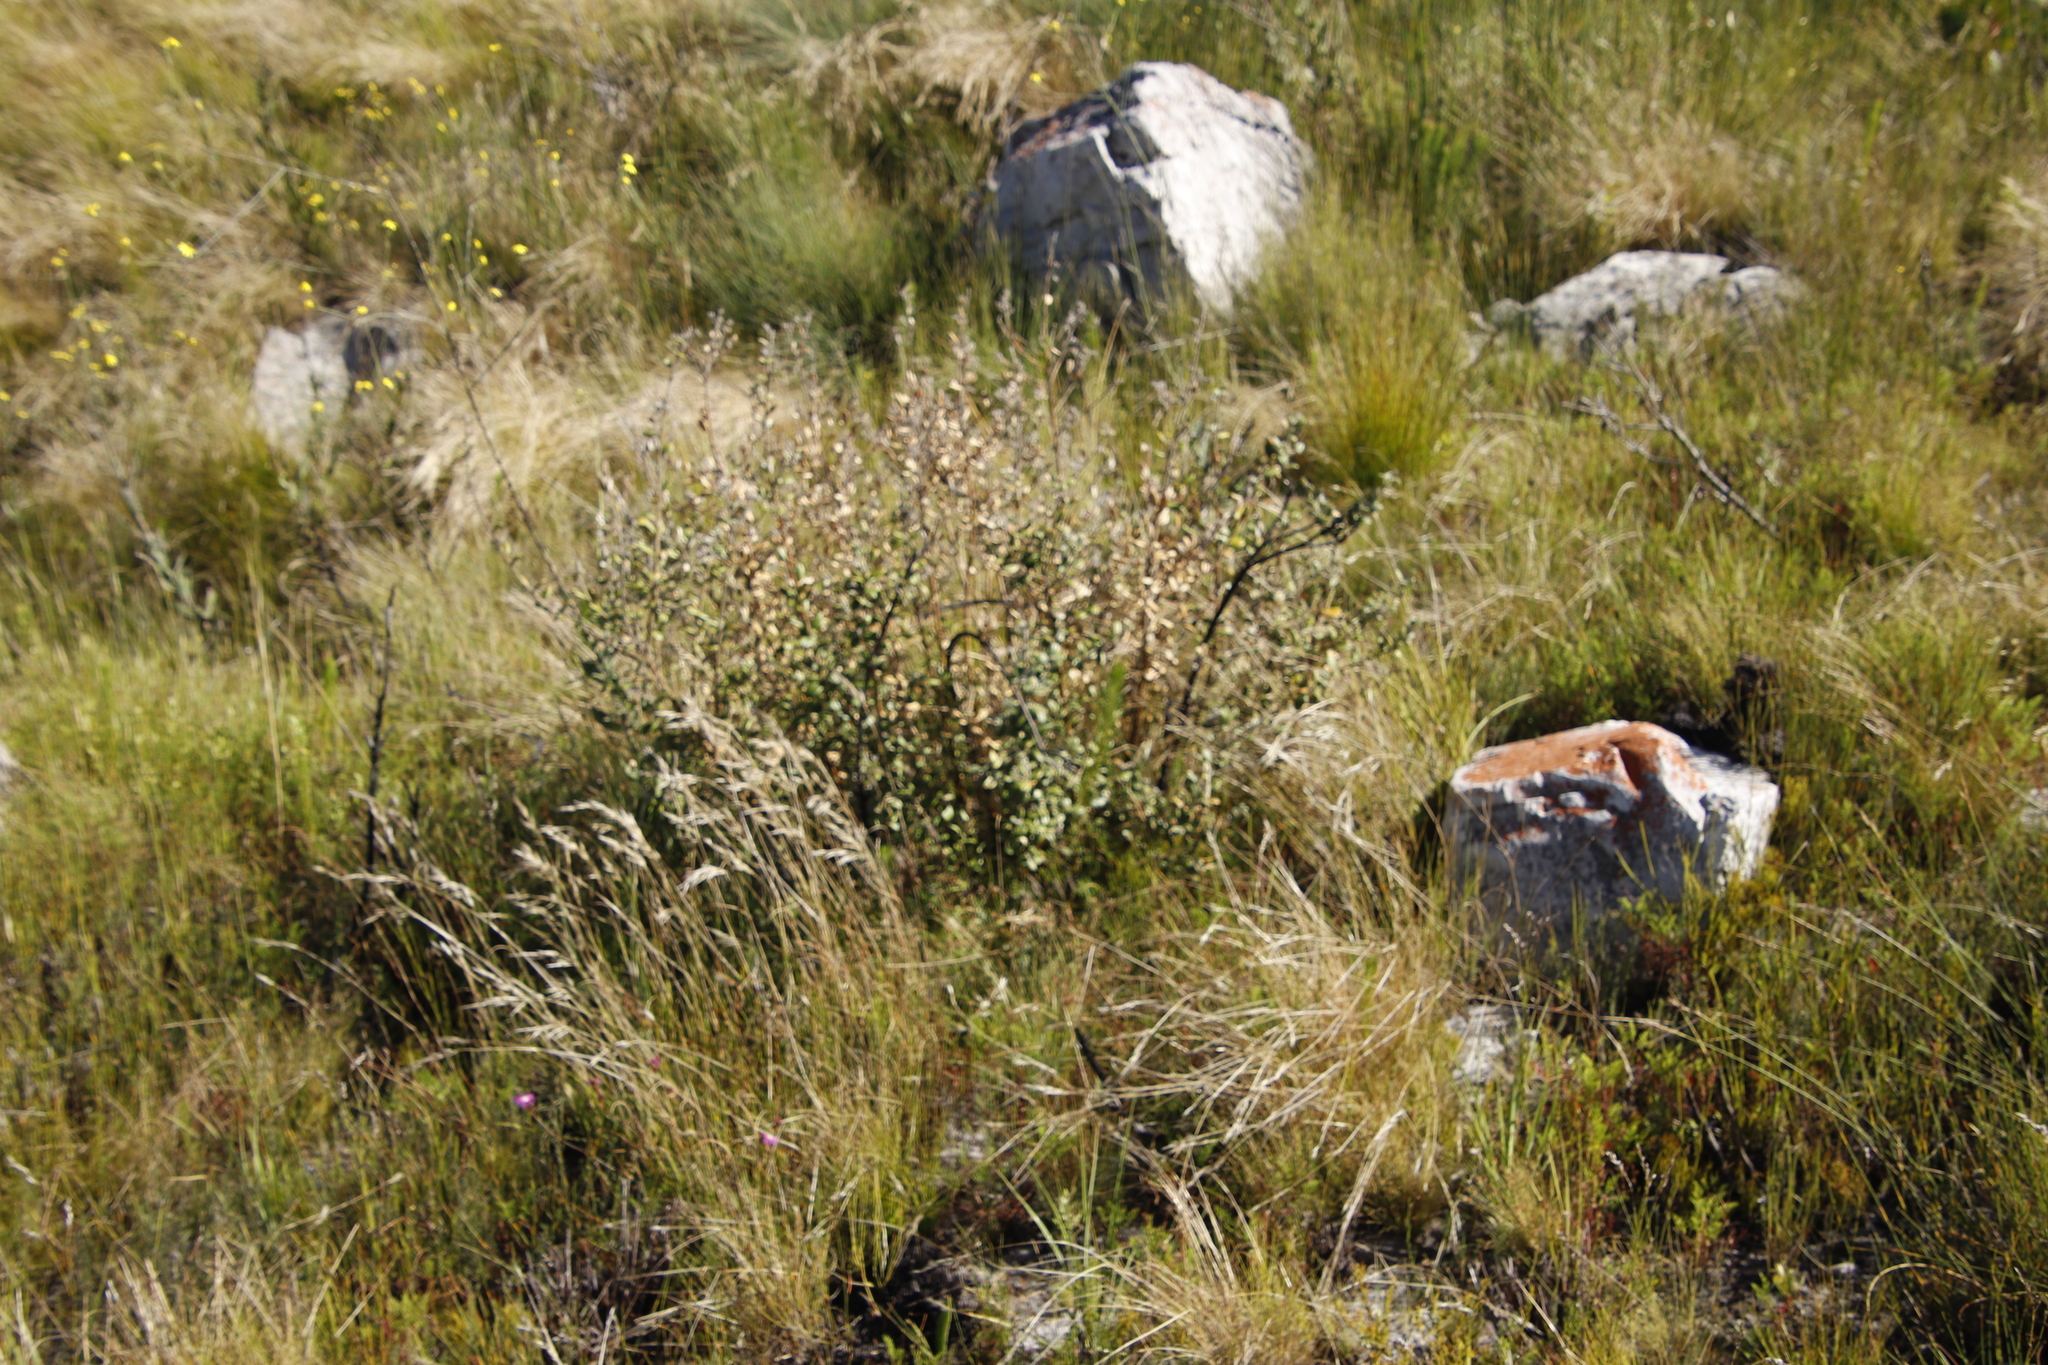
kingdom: Plantae
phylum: Tracheophyta
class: Magnoliopsida
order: Fabales
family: Fabaceae
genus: Podalyria
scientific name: Podalyria orbicularis
